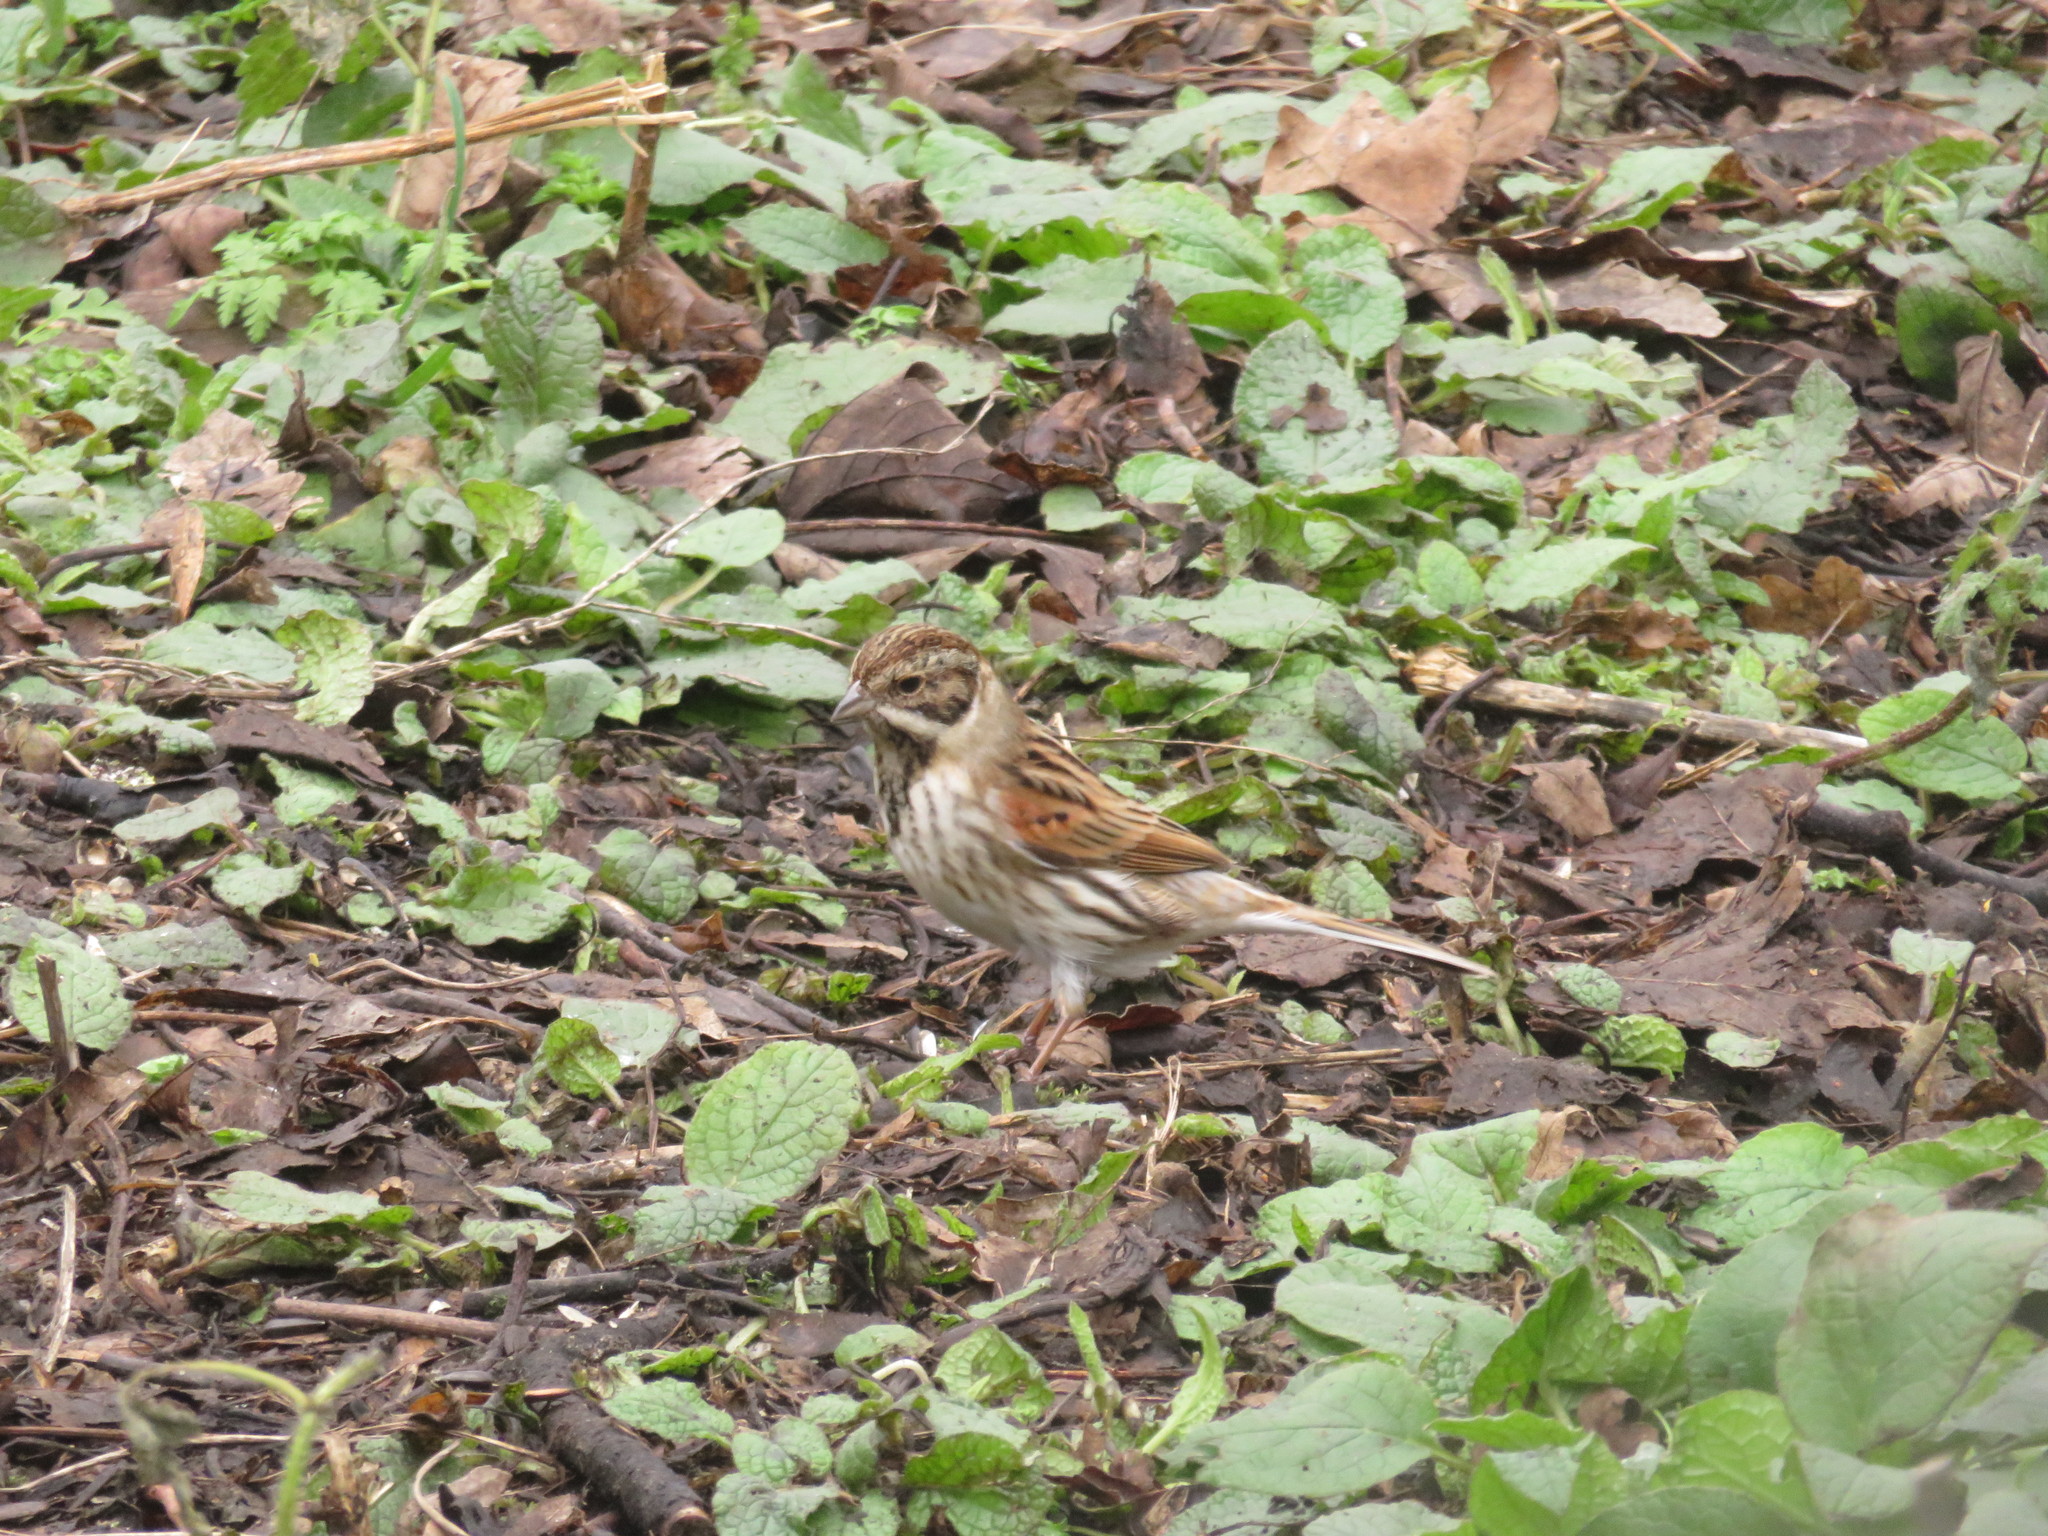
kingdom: Animalia
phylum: Chordata
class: Aves
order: Passeriformes
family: Emberizidae
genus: Emberiza
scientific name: Emberiza schoeniclus
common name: Reed bunting
